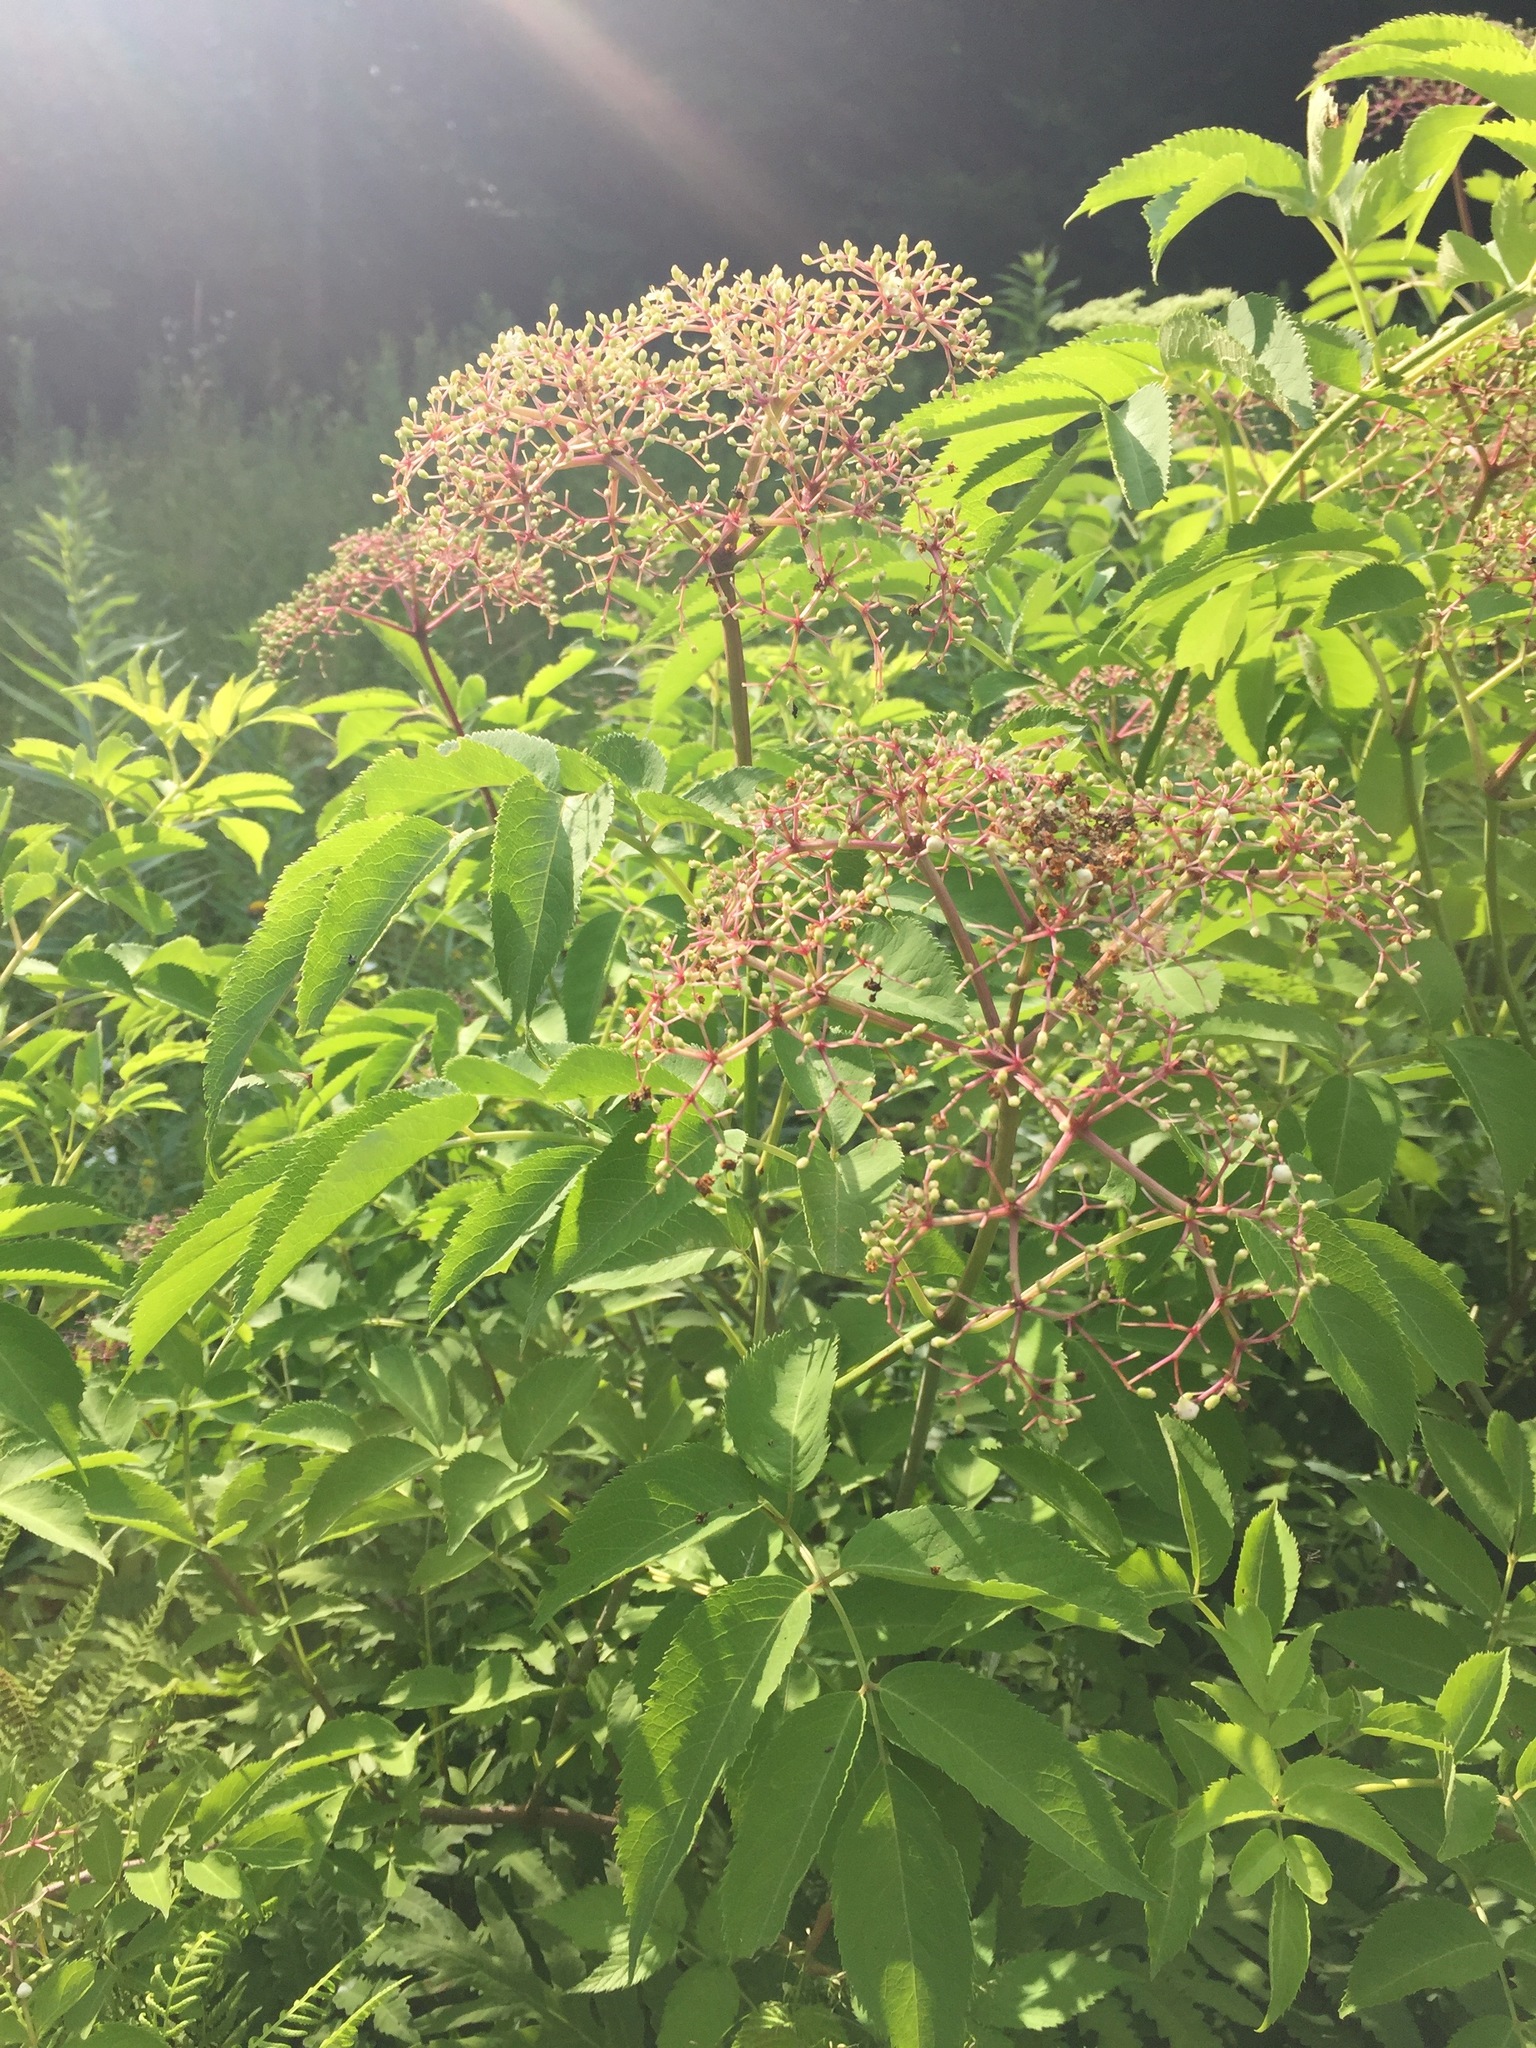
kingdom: Plantae
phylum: Tracheophyta
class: Magnoliopsida
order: Dipsacales
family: Viburnaceae
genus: Sambucus
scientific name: Sambucus canadensis
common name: American elder
